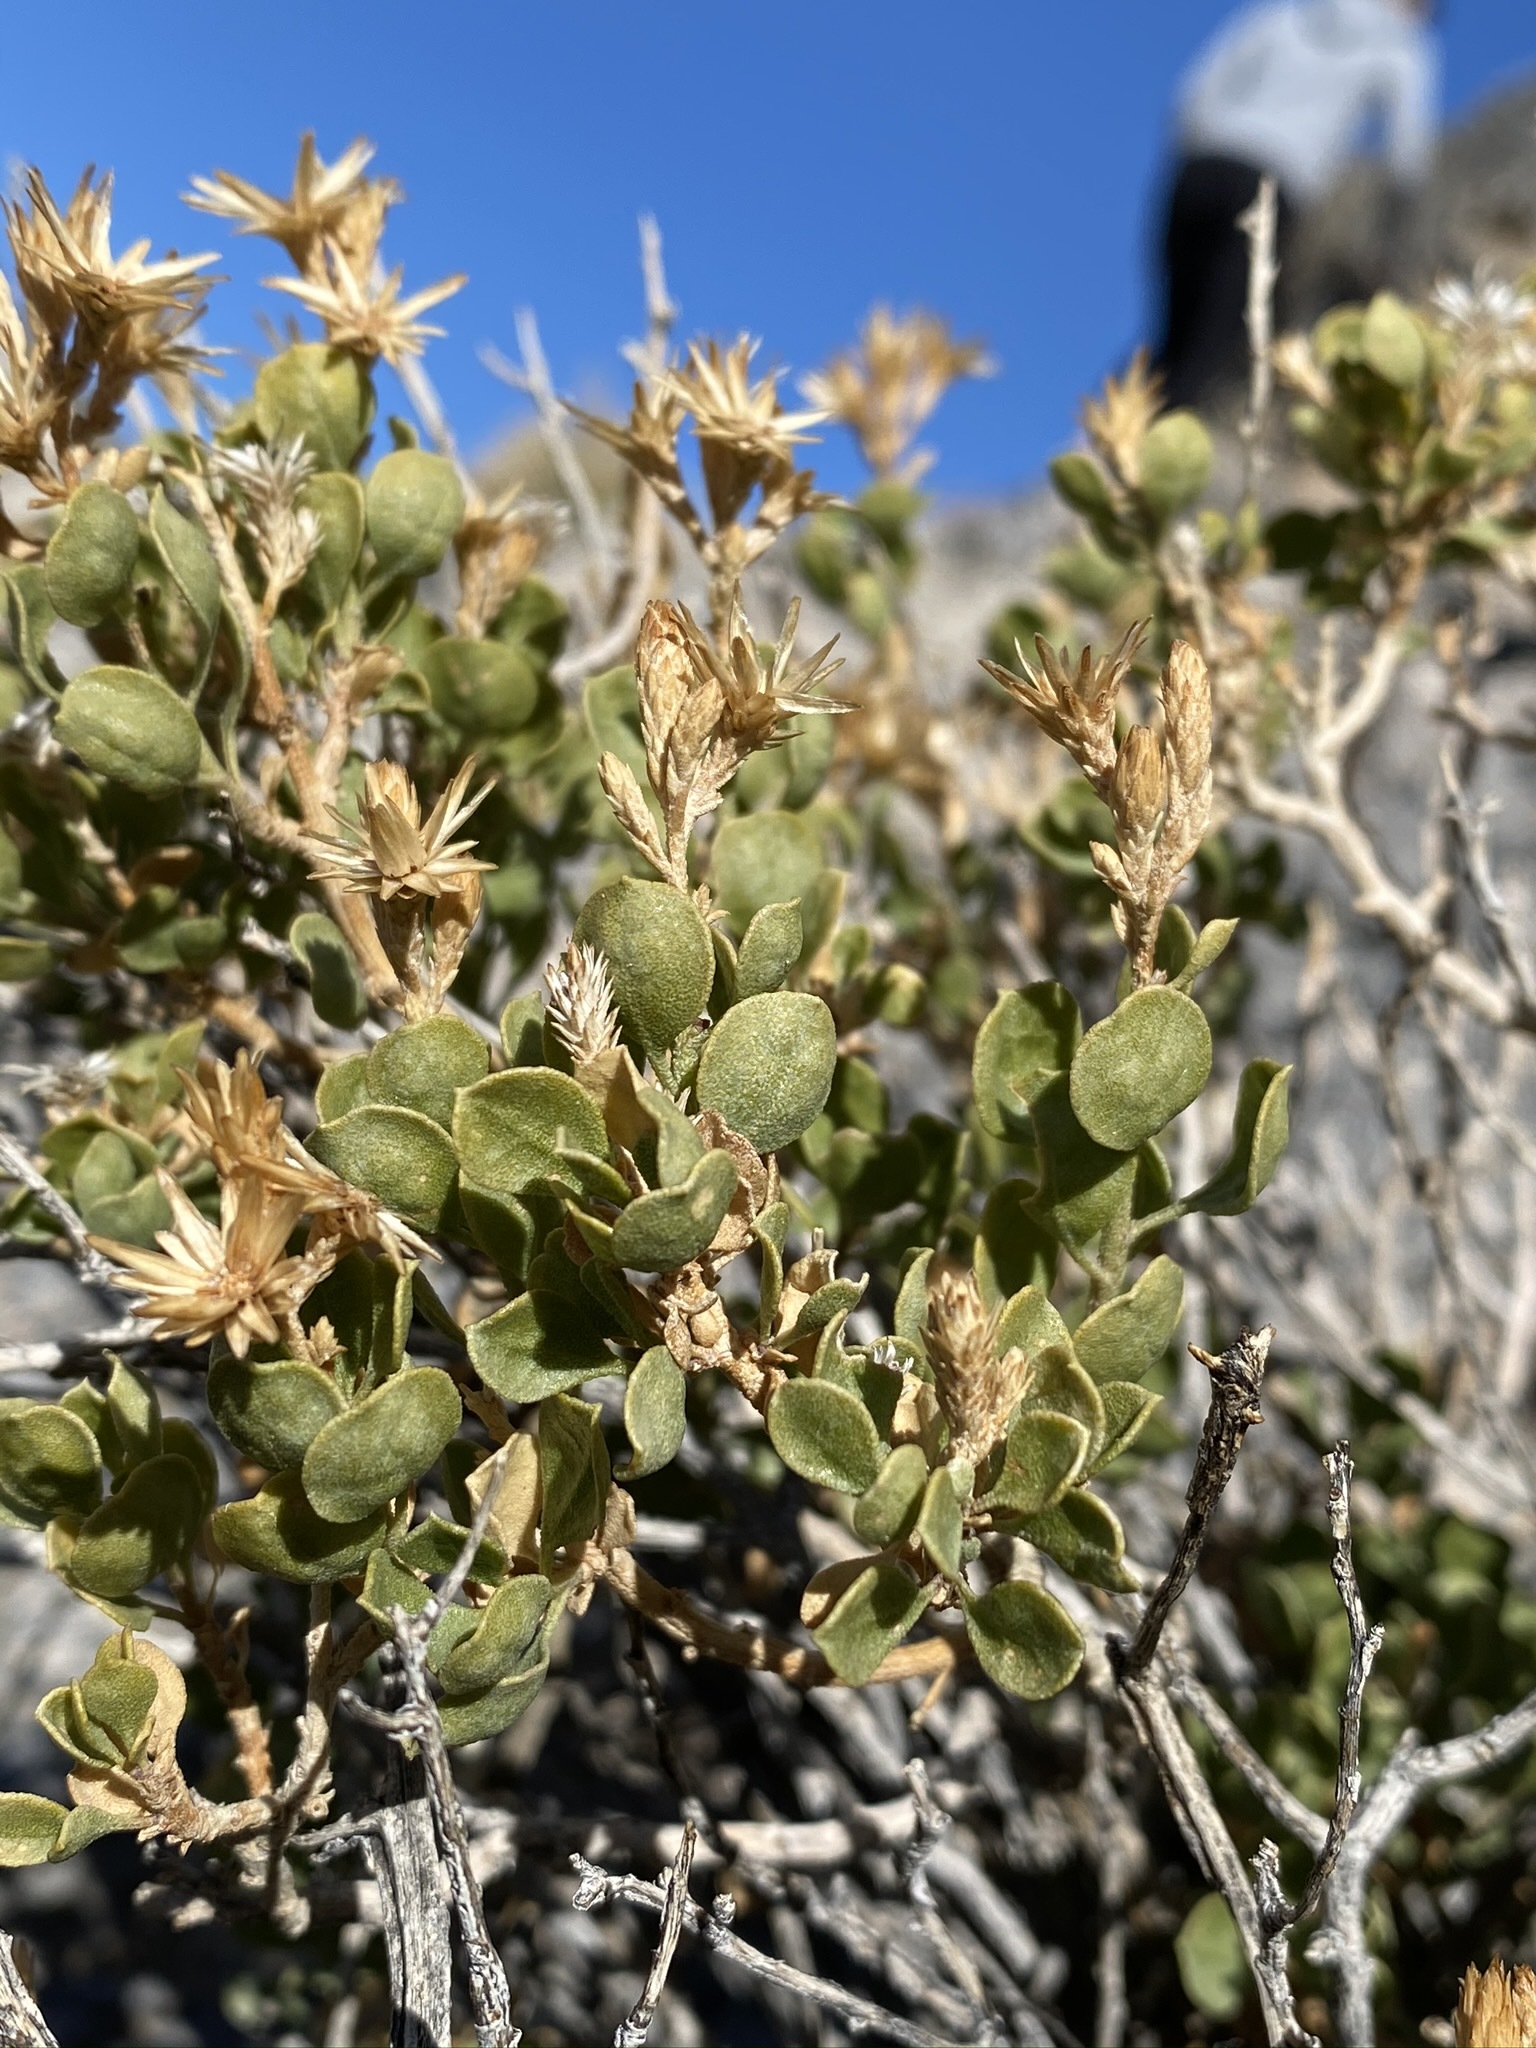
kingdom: Plantae
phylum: Tracheophyta
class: Magnoliopsida
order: Asterales
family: Asteraceae
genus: Ericameria
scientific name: Ericameria cuneata
